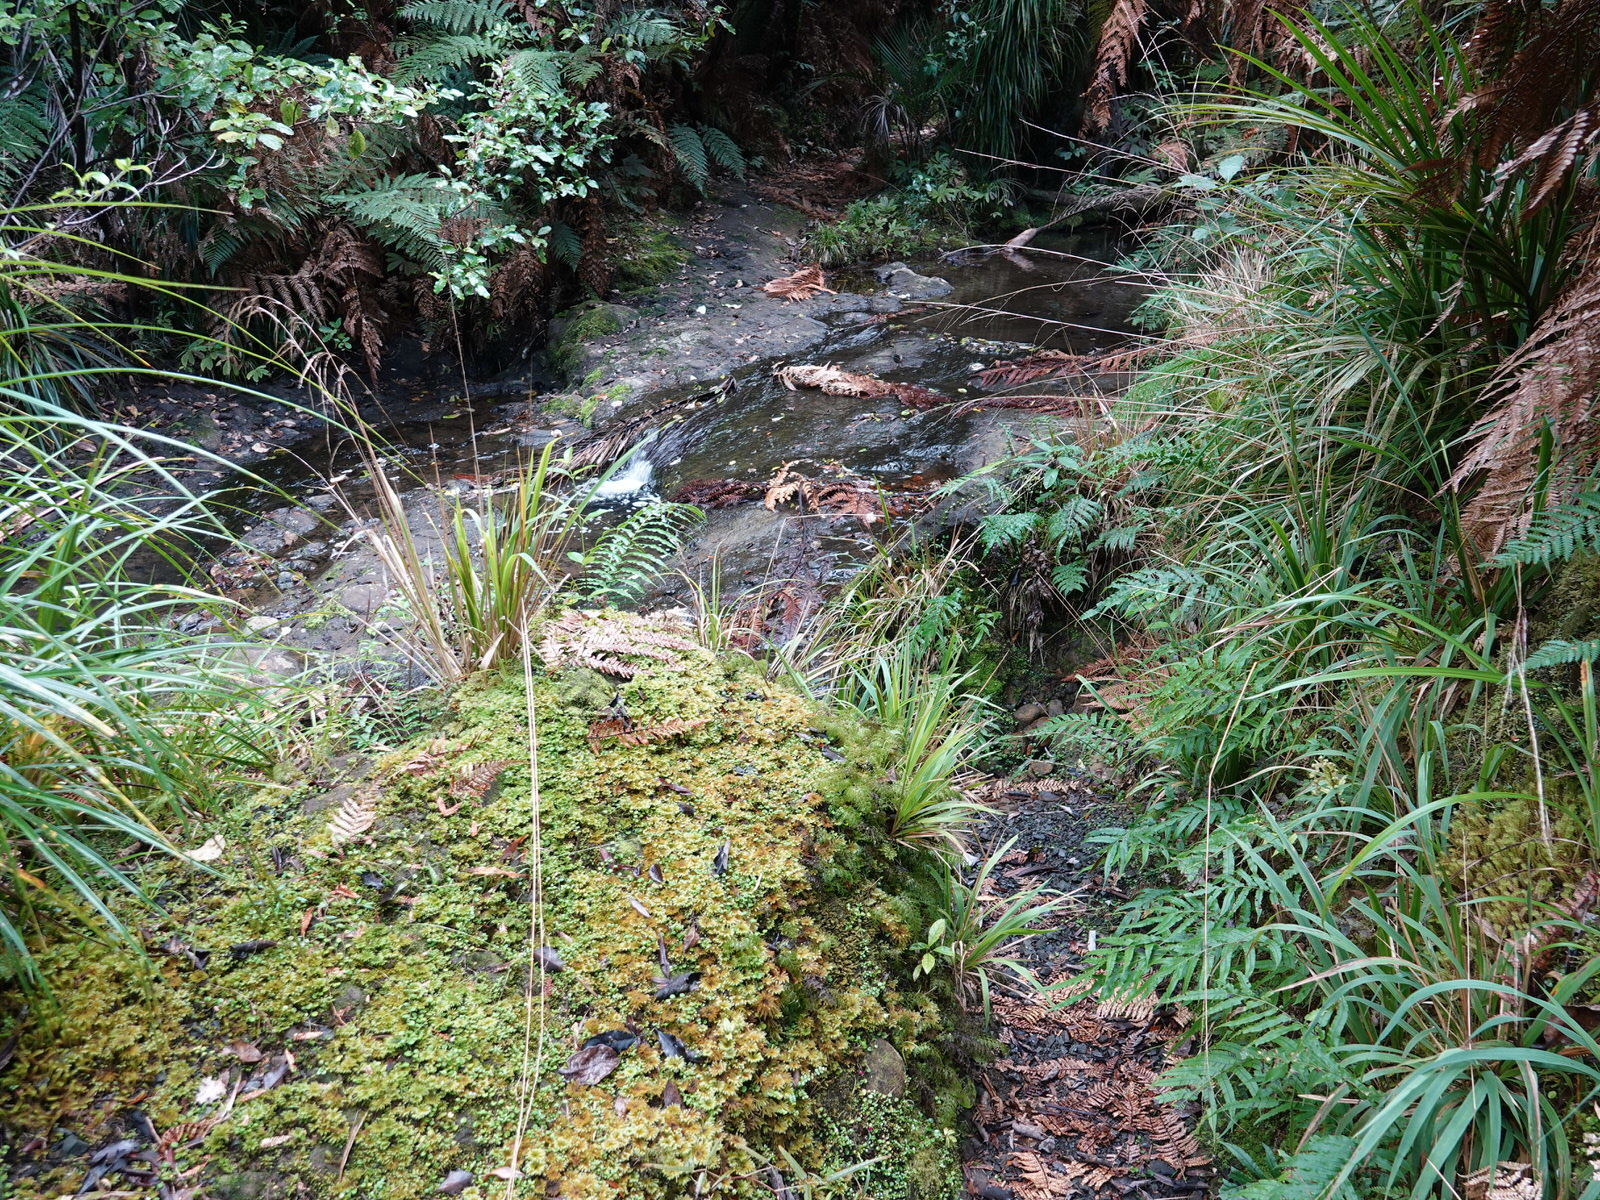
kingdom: Plantae
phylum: Tracheophyta
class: Magnoliopsida
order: Asterales
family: Campanulaceae
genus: Lobelia
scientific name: Lobelia angulata
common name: Lawn lobelia
